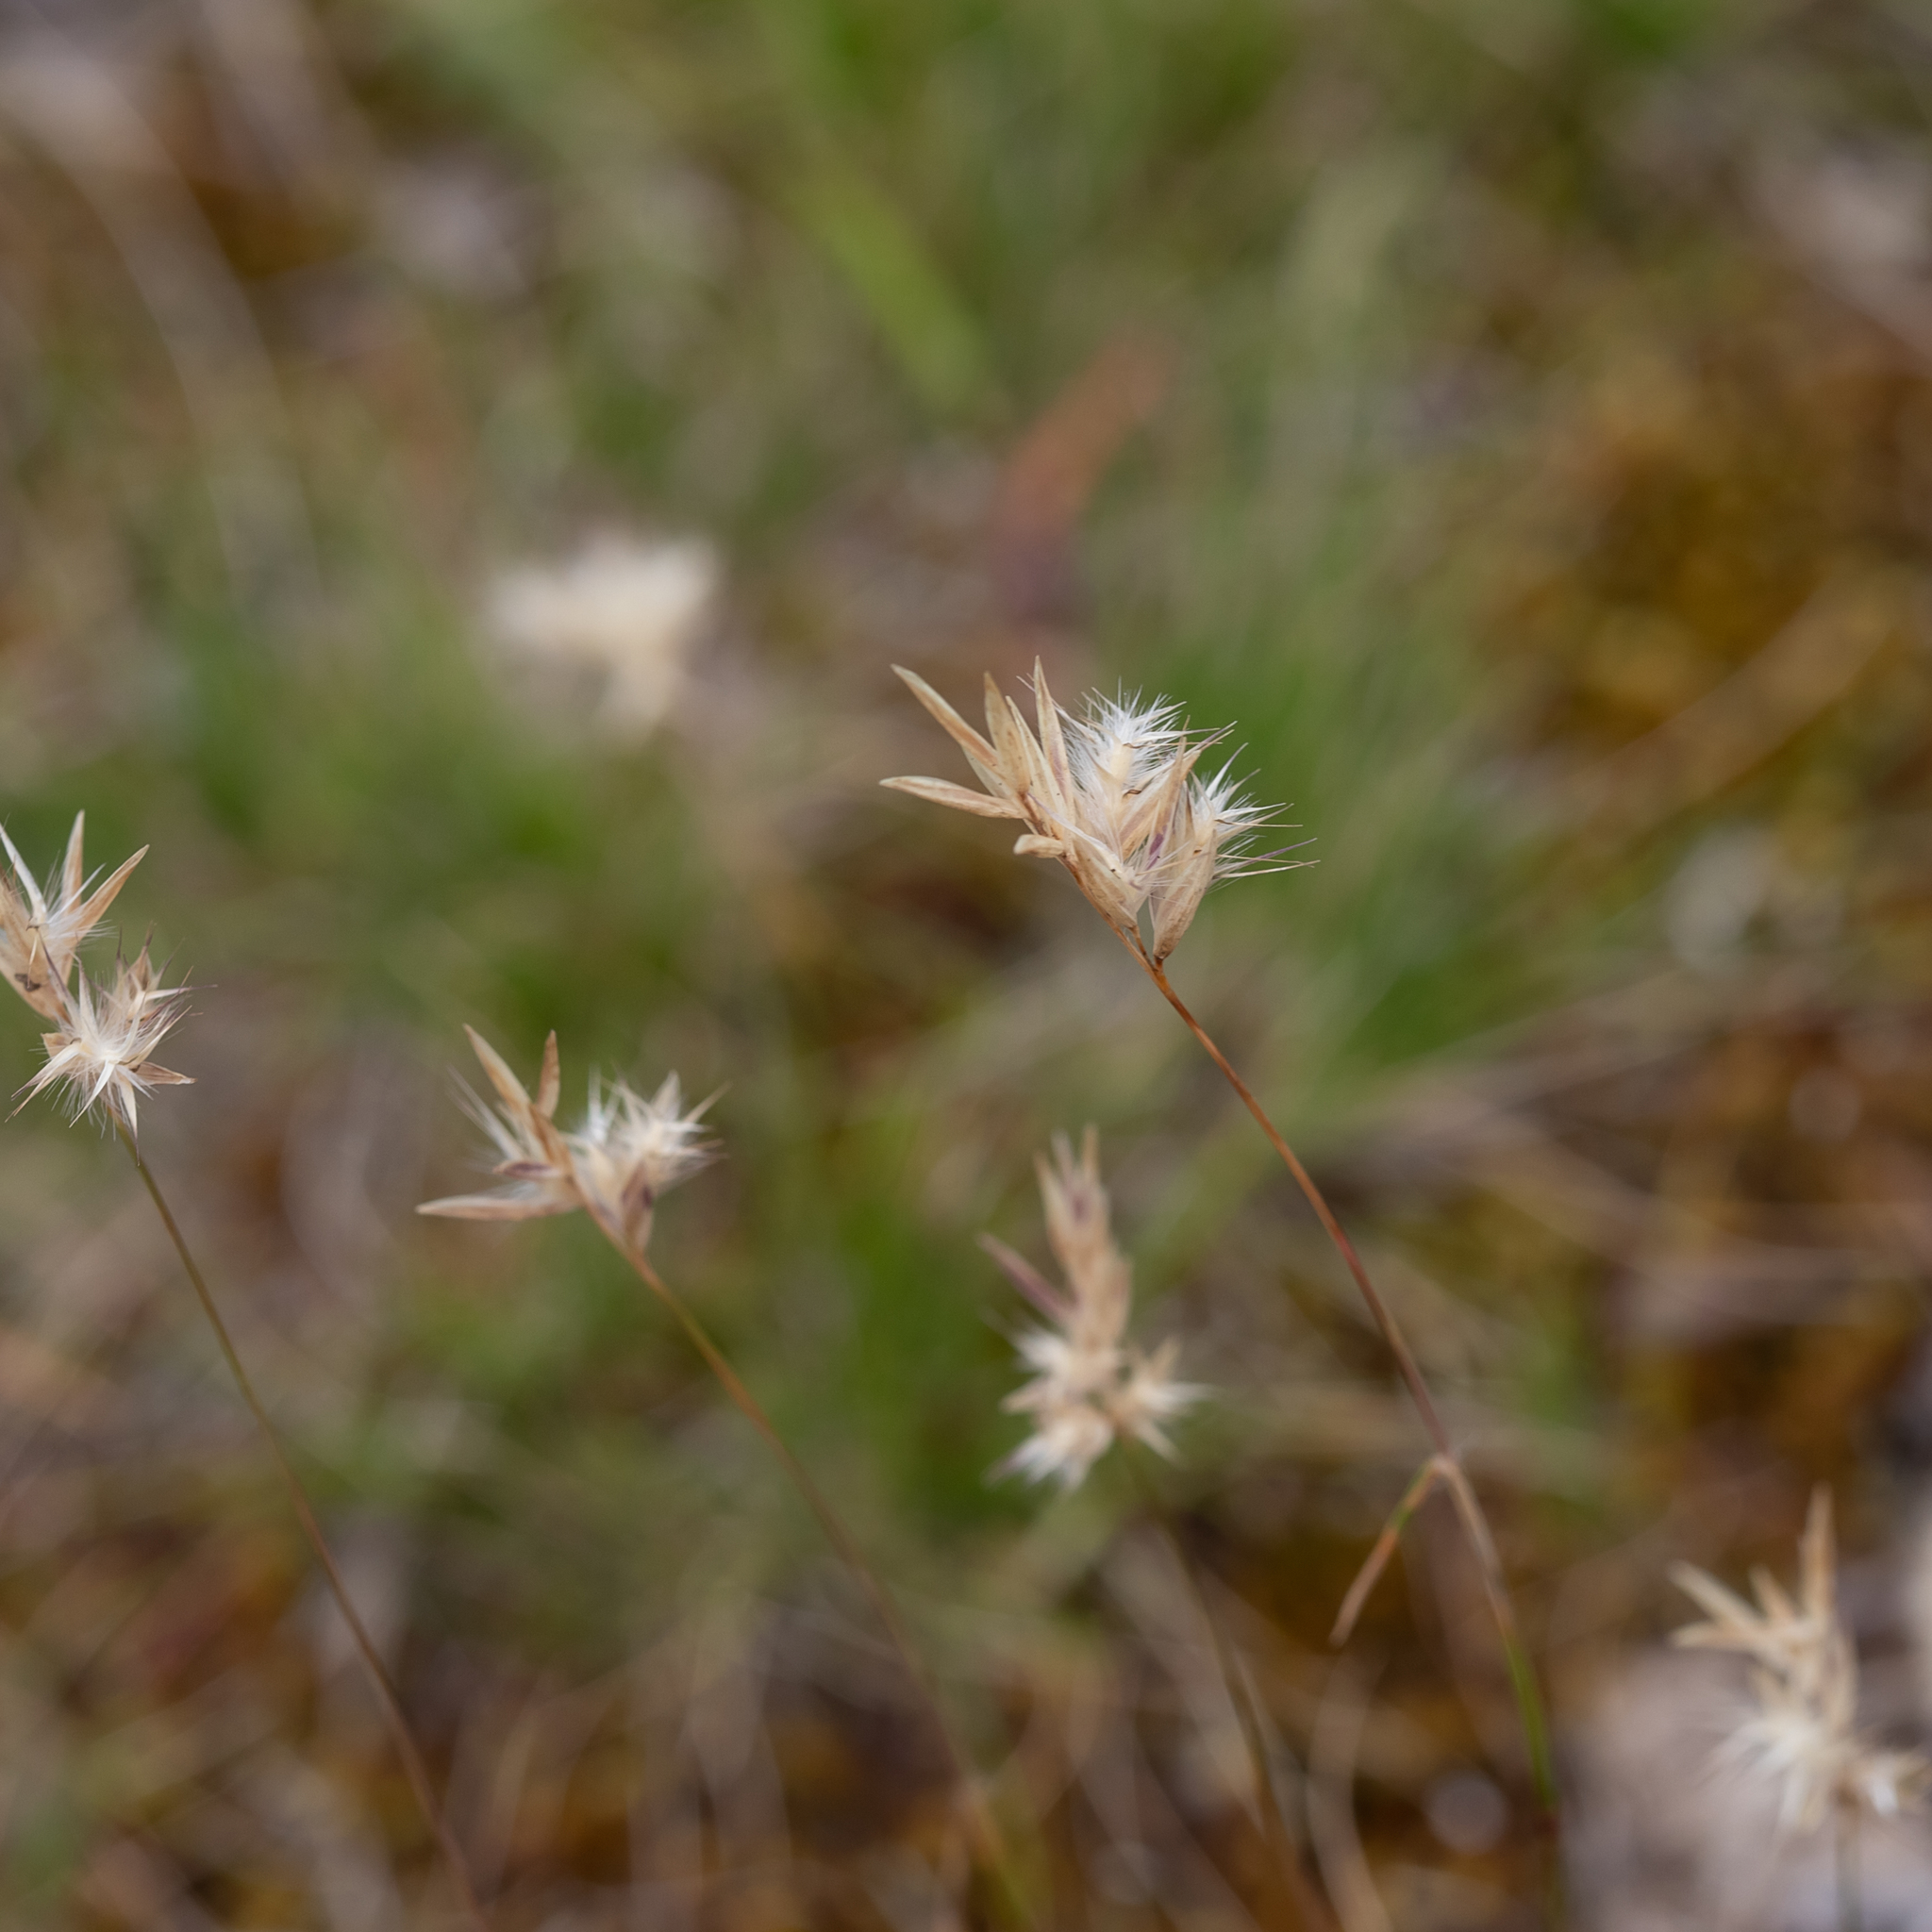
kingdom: Plantae
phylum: Tracheophyta
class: Liliopsida
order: Poales
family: Poaceae
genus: Rytidosperma
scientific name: Rytidosperma geniculatum
